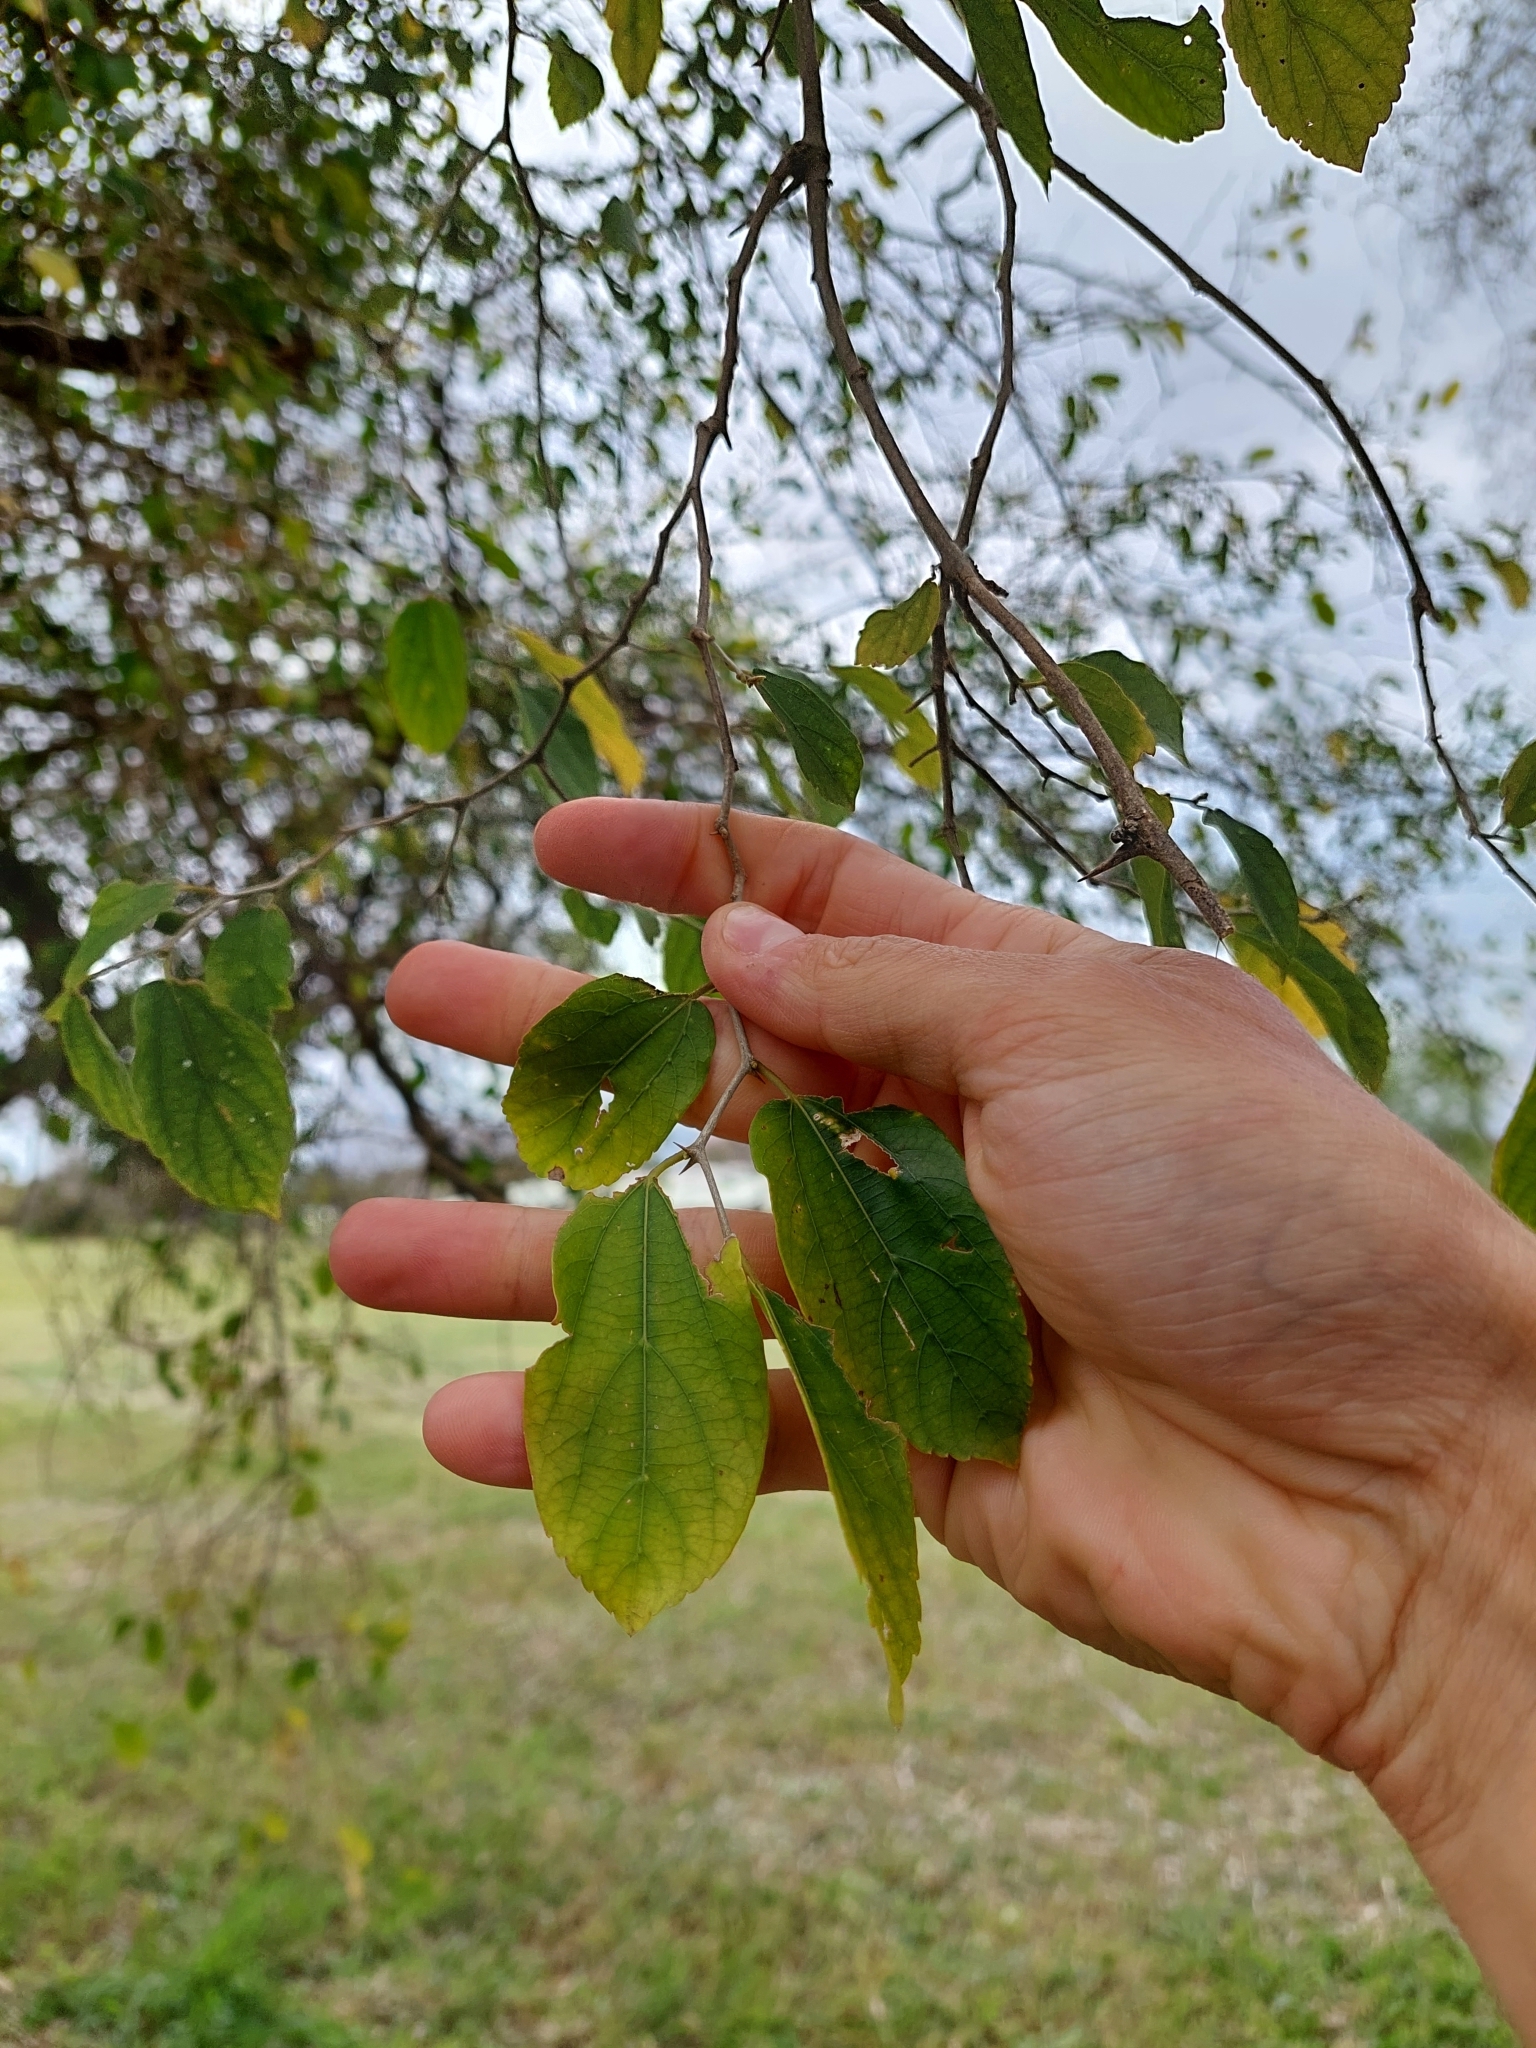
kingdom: Plantae
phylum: Tracheophyta
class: Magnoliopsida
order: Rosales
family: Cannabaceae
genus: Celtis
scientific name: Celtis tala
